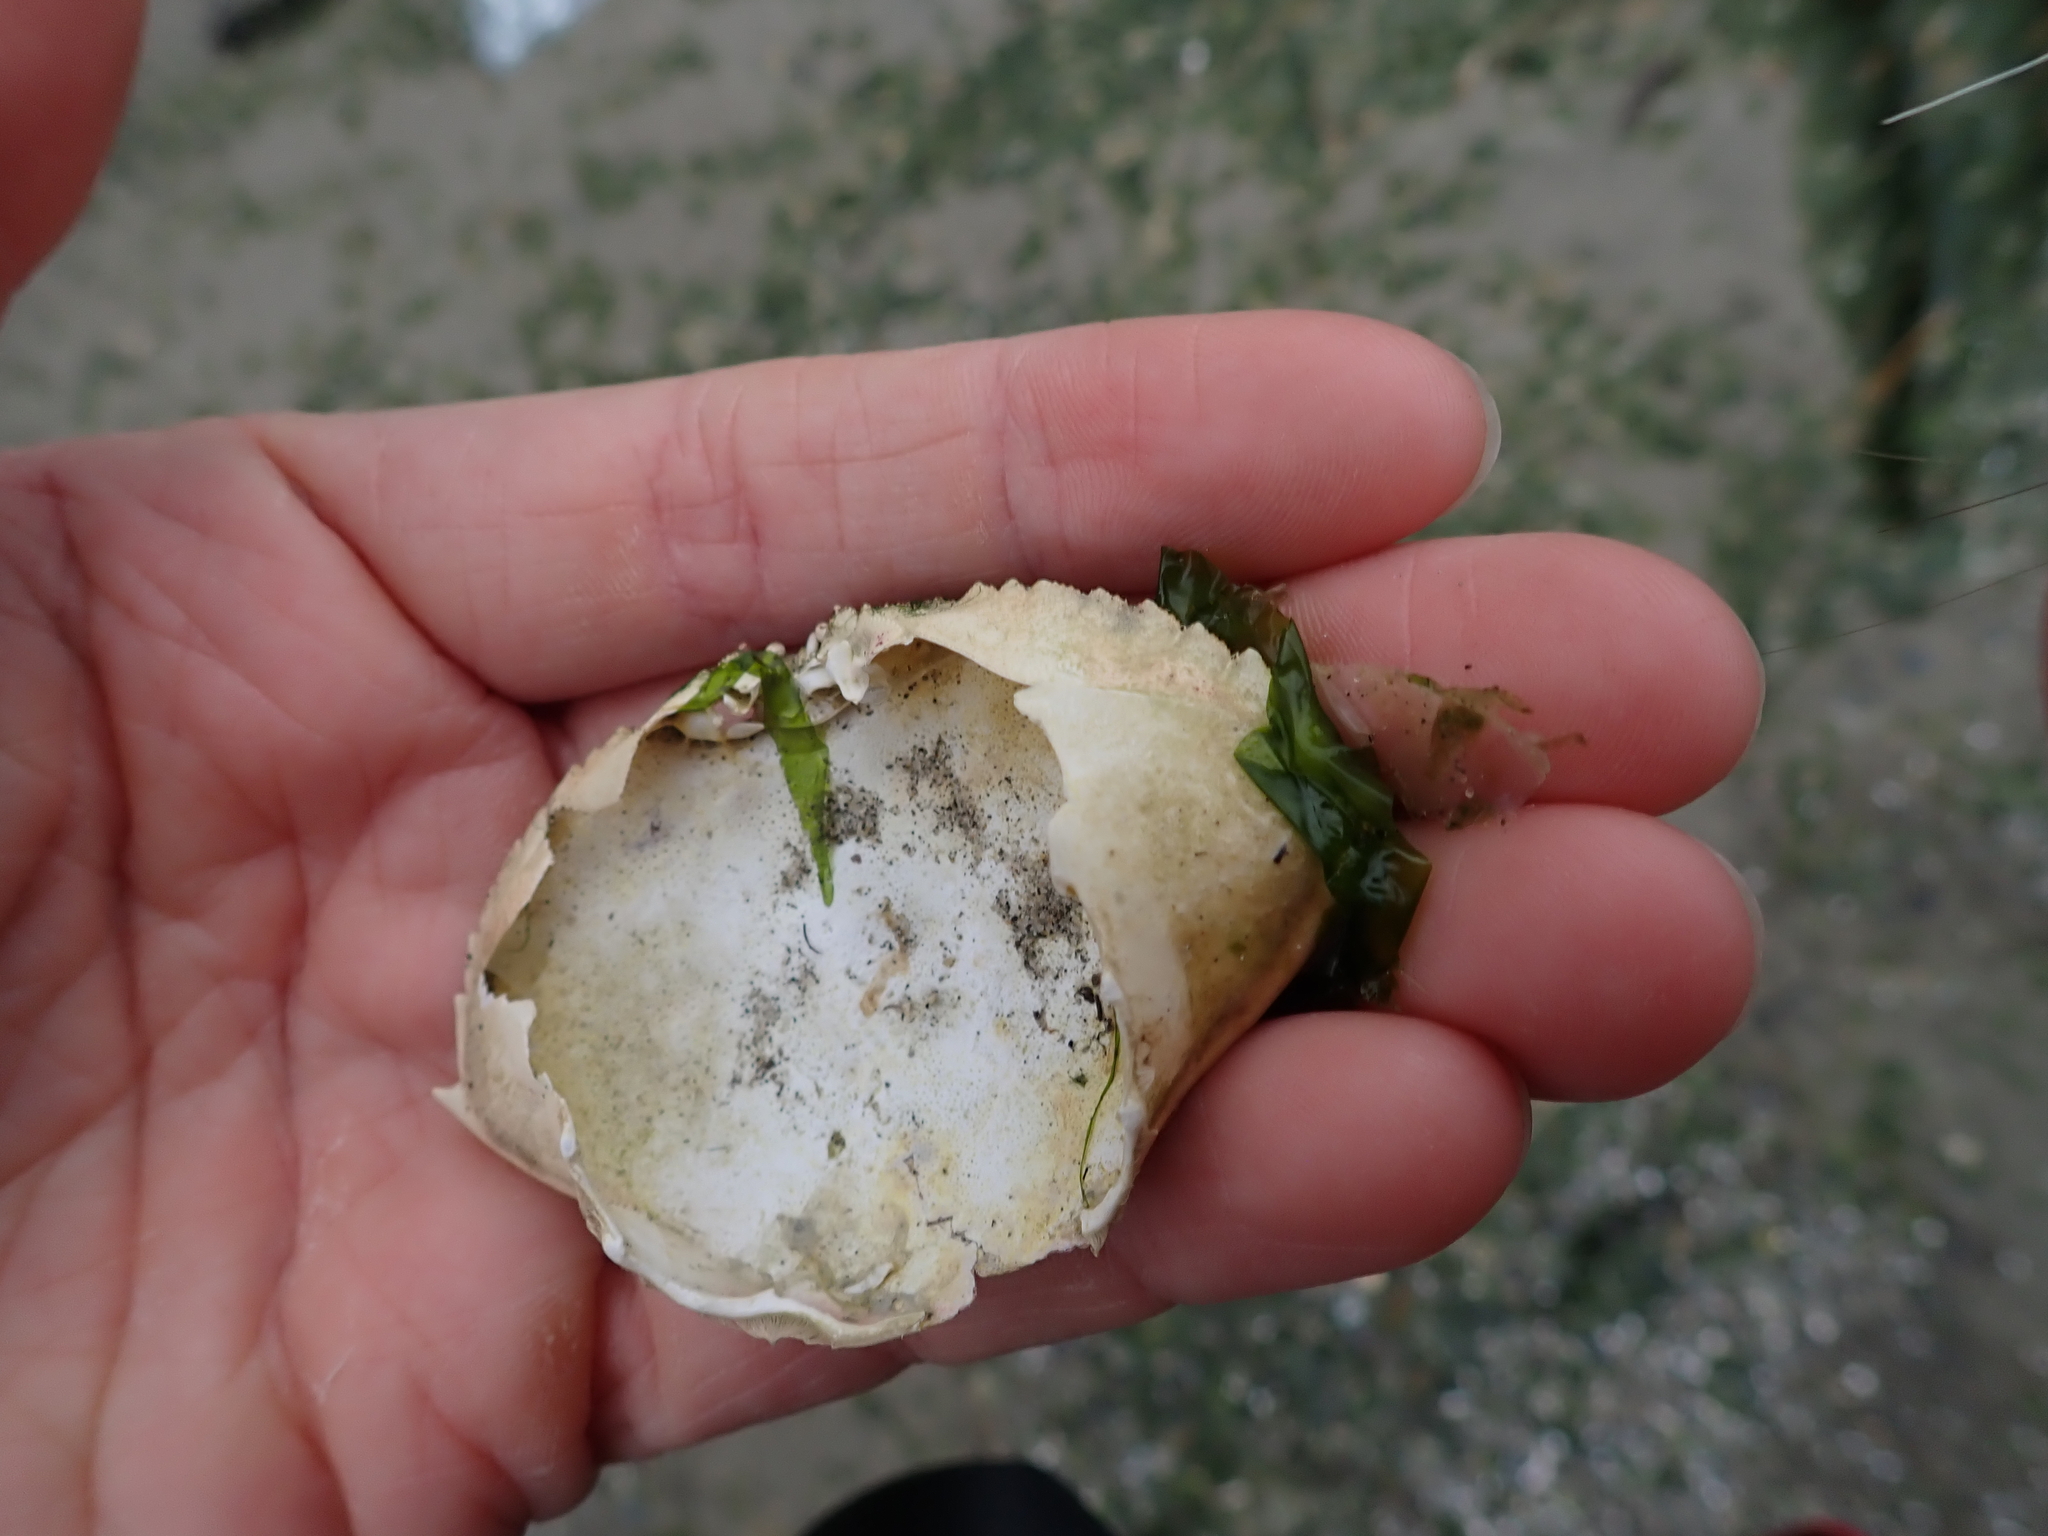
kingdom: Animalia
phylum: Arthropoda
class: Malacostraca
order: Decapoda
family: Cancridae
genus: Metacarcinus
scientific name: Metacarcinus magister
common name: Californian crab
